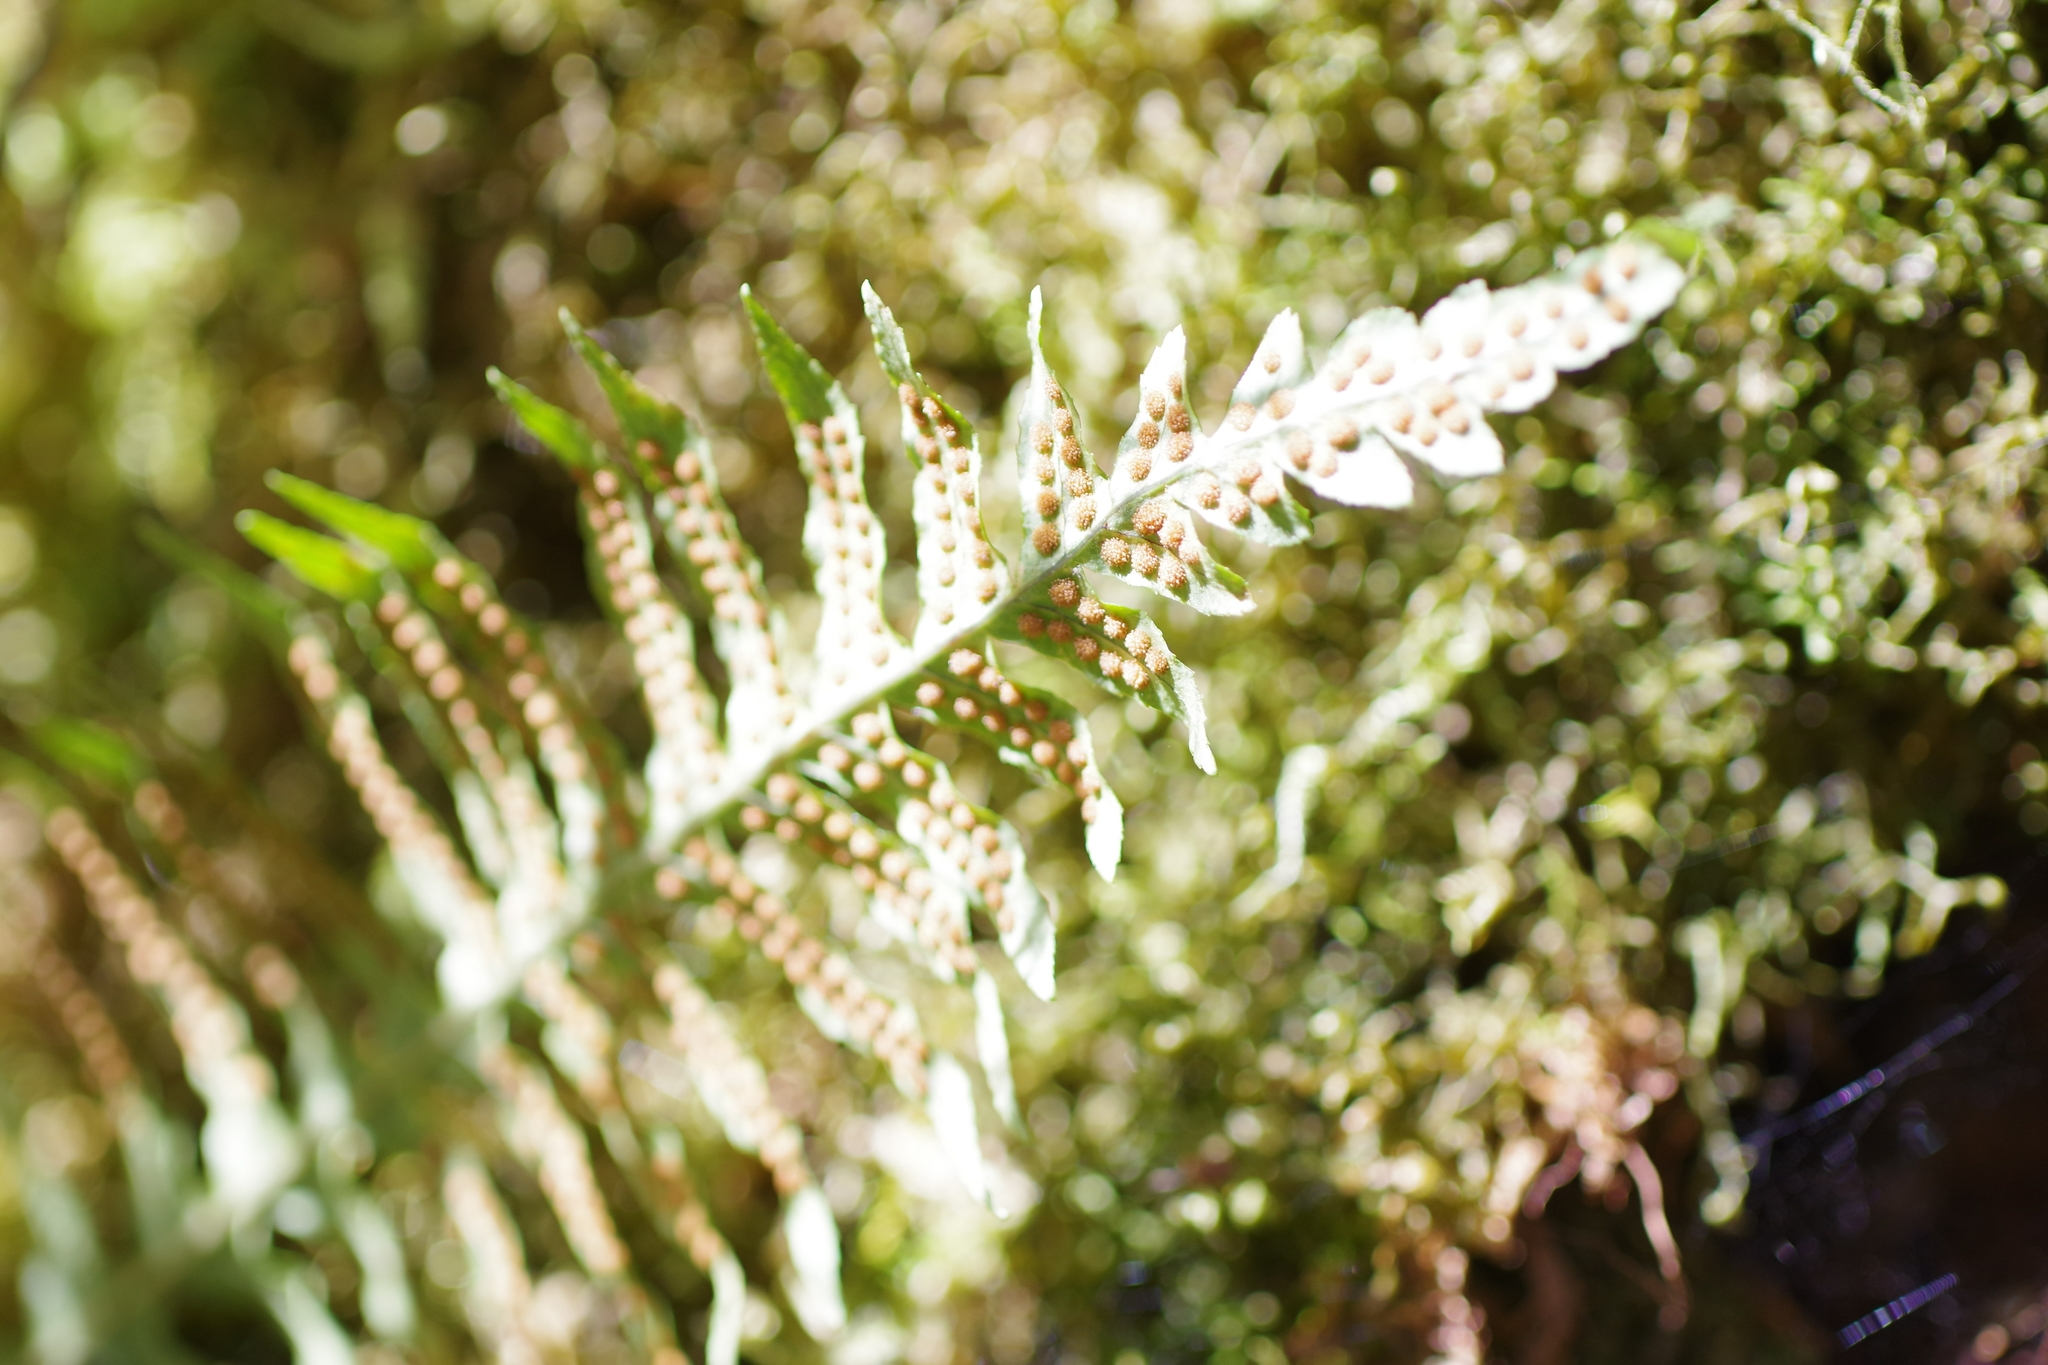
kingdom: Plantae
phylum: Tracheophyta
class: Polypodiopsida
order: Polypodiales
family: Polypodiaceae
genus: Polypodium
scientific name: Polypodium glycyrrhiza
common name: Licorice fern
